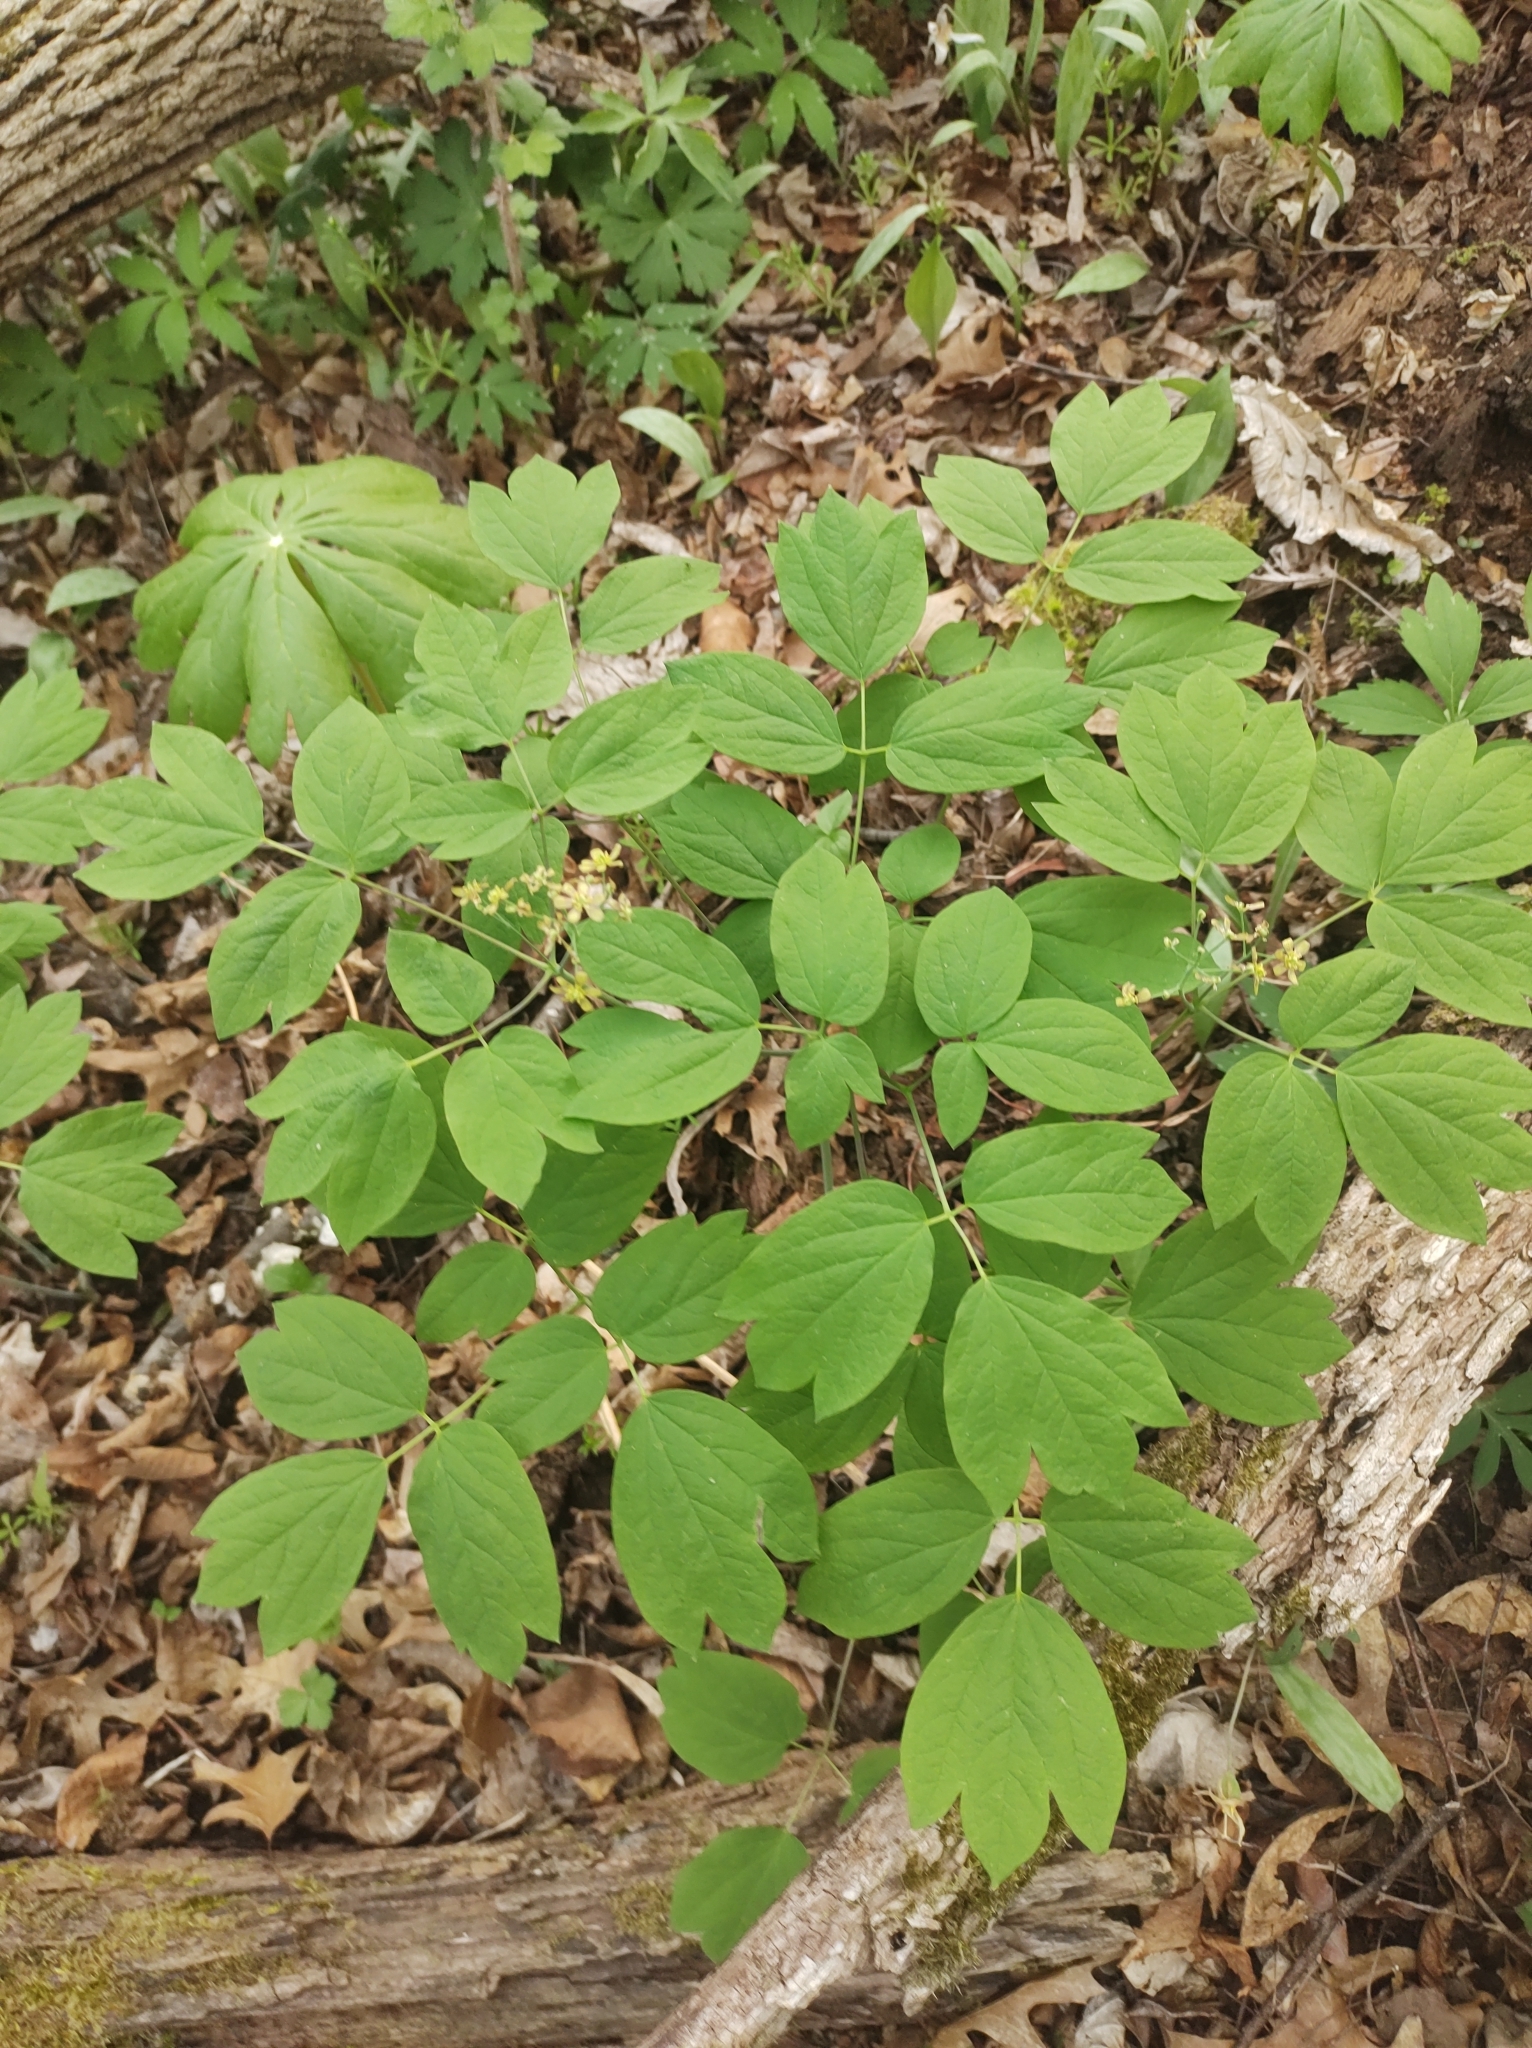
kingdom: Plantae
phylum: Tracheophyta
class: Magnoliopsida
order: Ranunculales
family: Berberidaceae
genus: Caulophyllum
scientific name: Caulophyllum thalictroides
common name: Blue cohosh
